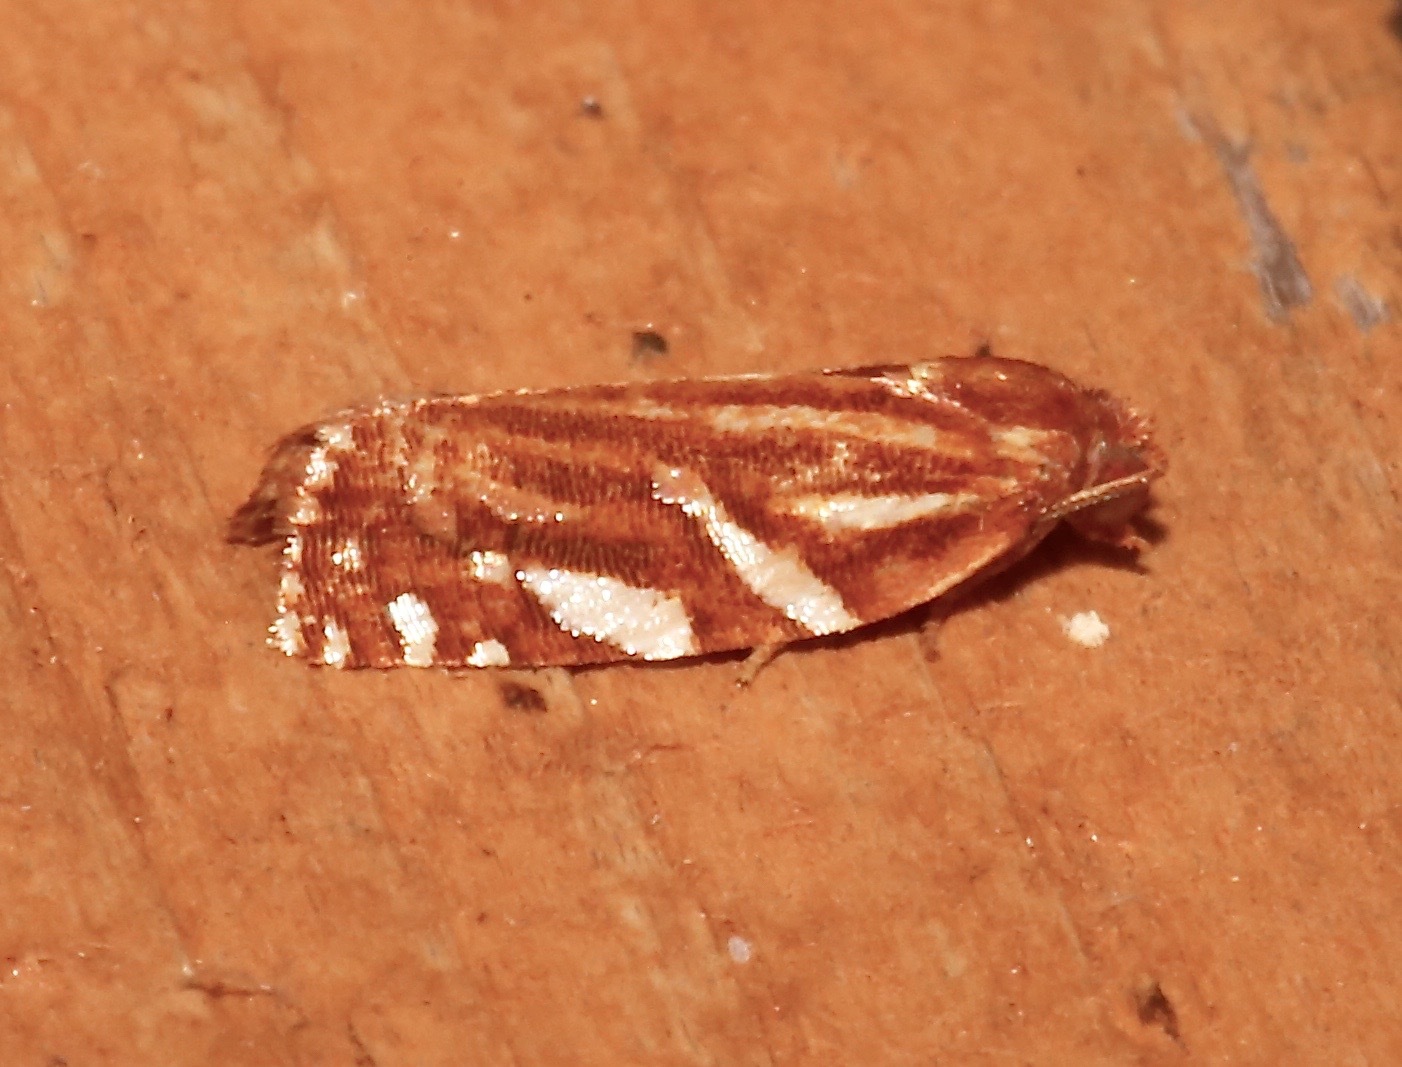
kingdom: Animalia
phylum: Arthropoda
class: Insecta
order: Lepidoptera
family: Tortricidae
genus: Choristoneura
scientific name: Choristoneura argentifasciata
